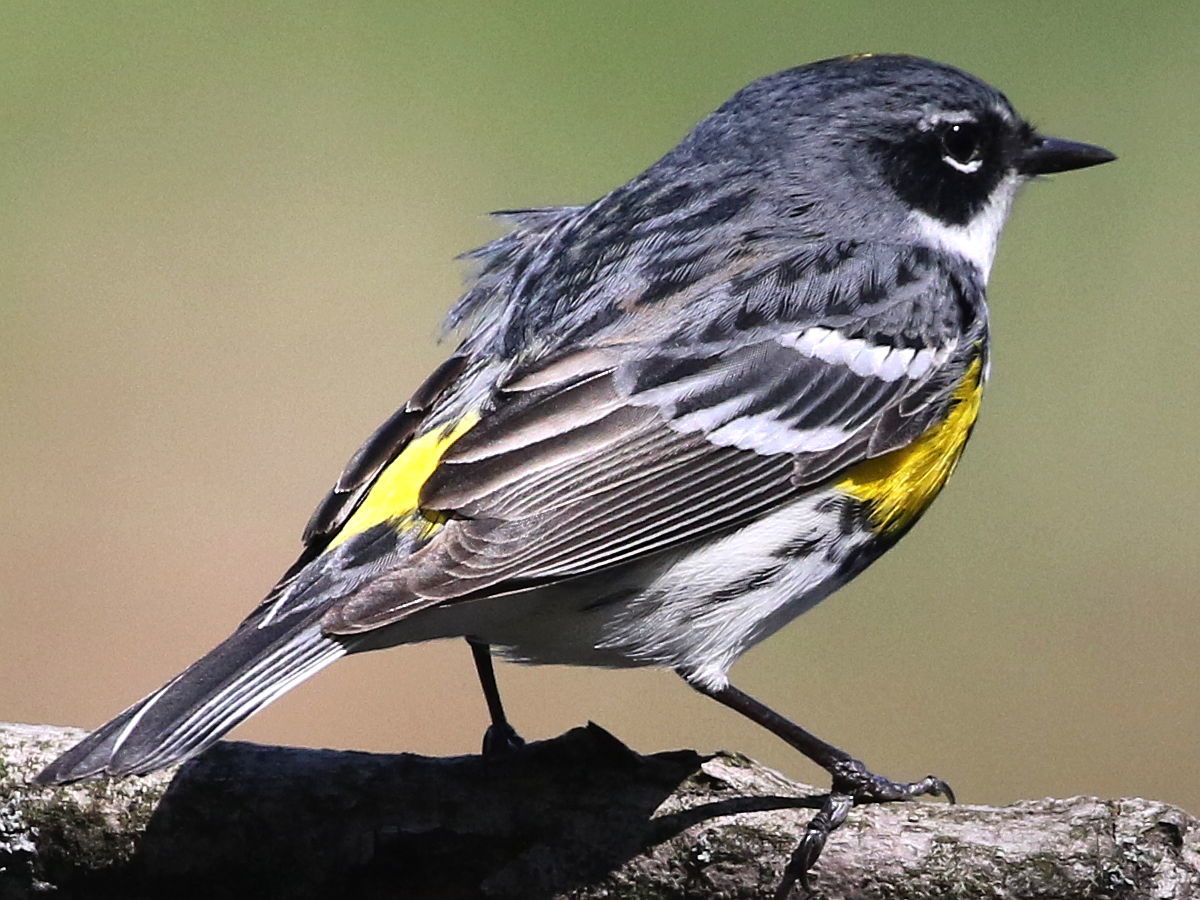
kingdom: Animalia
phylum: Chordata
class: Aves
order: Passeriformes
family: Parulidae
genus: Setophaga
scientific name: Setophaga coronata
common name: Myrtle warbler
